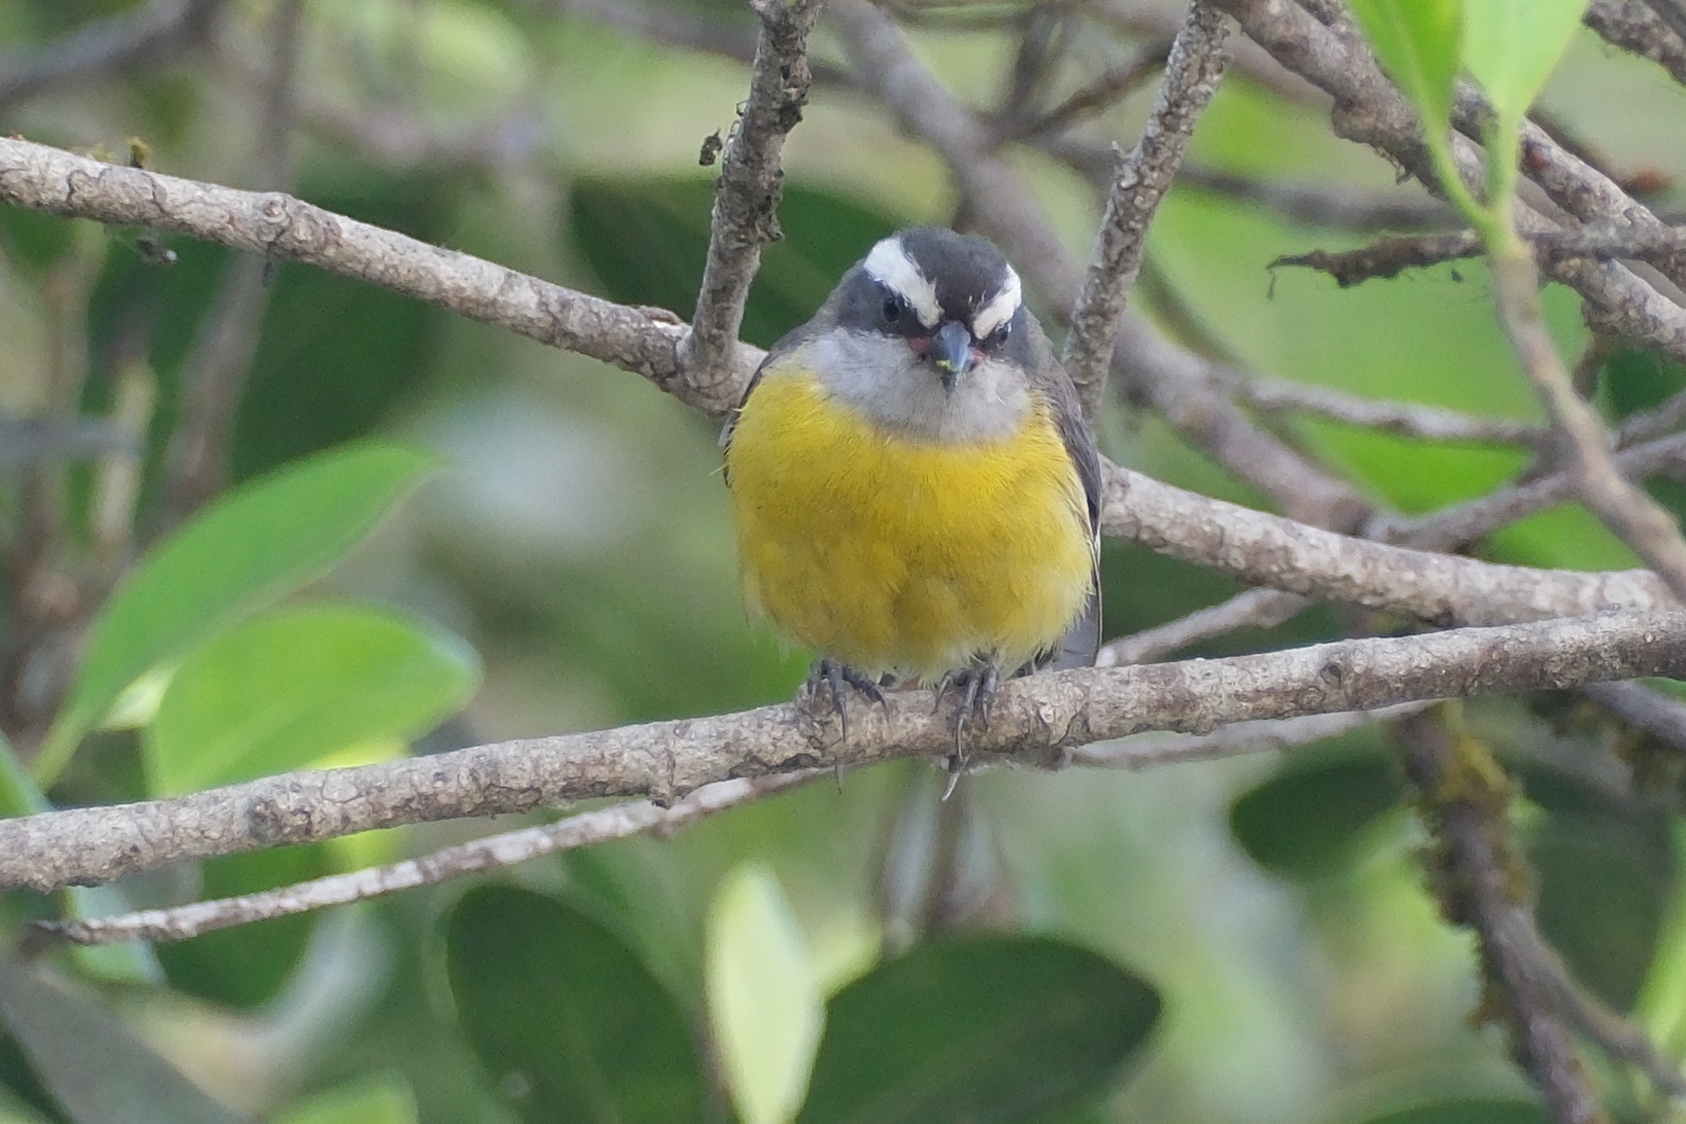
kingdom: Animalia
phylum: Chordata
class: Aves
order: Passeriformes
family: Thraupidae
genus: Coereba
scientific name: Coereba flaveola
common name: Bananaquit
